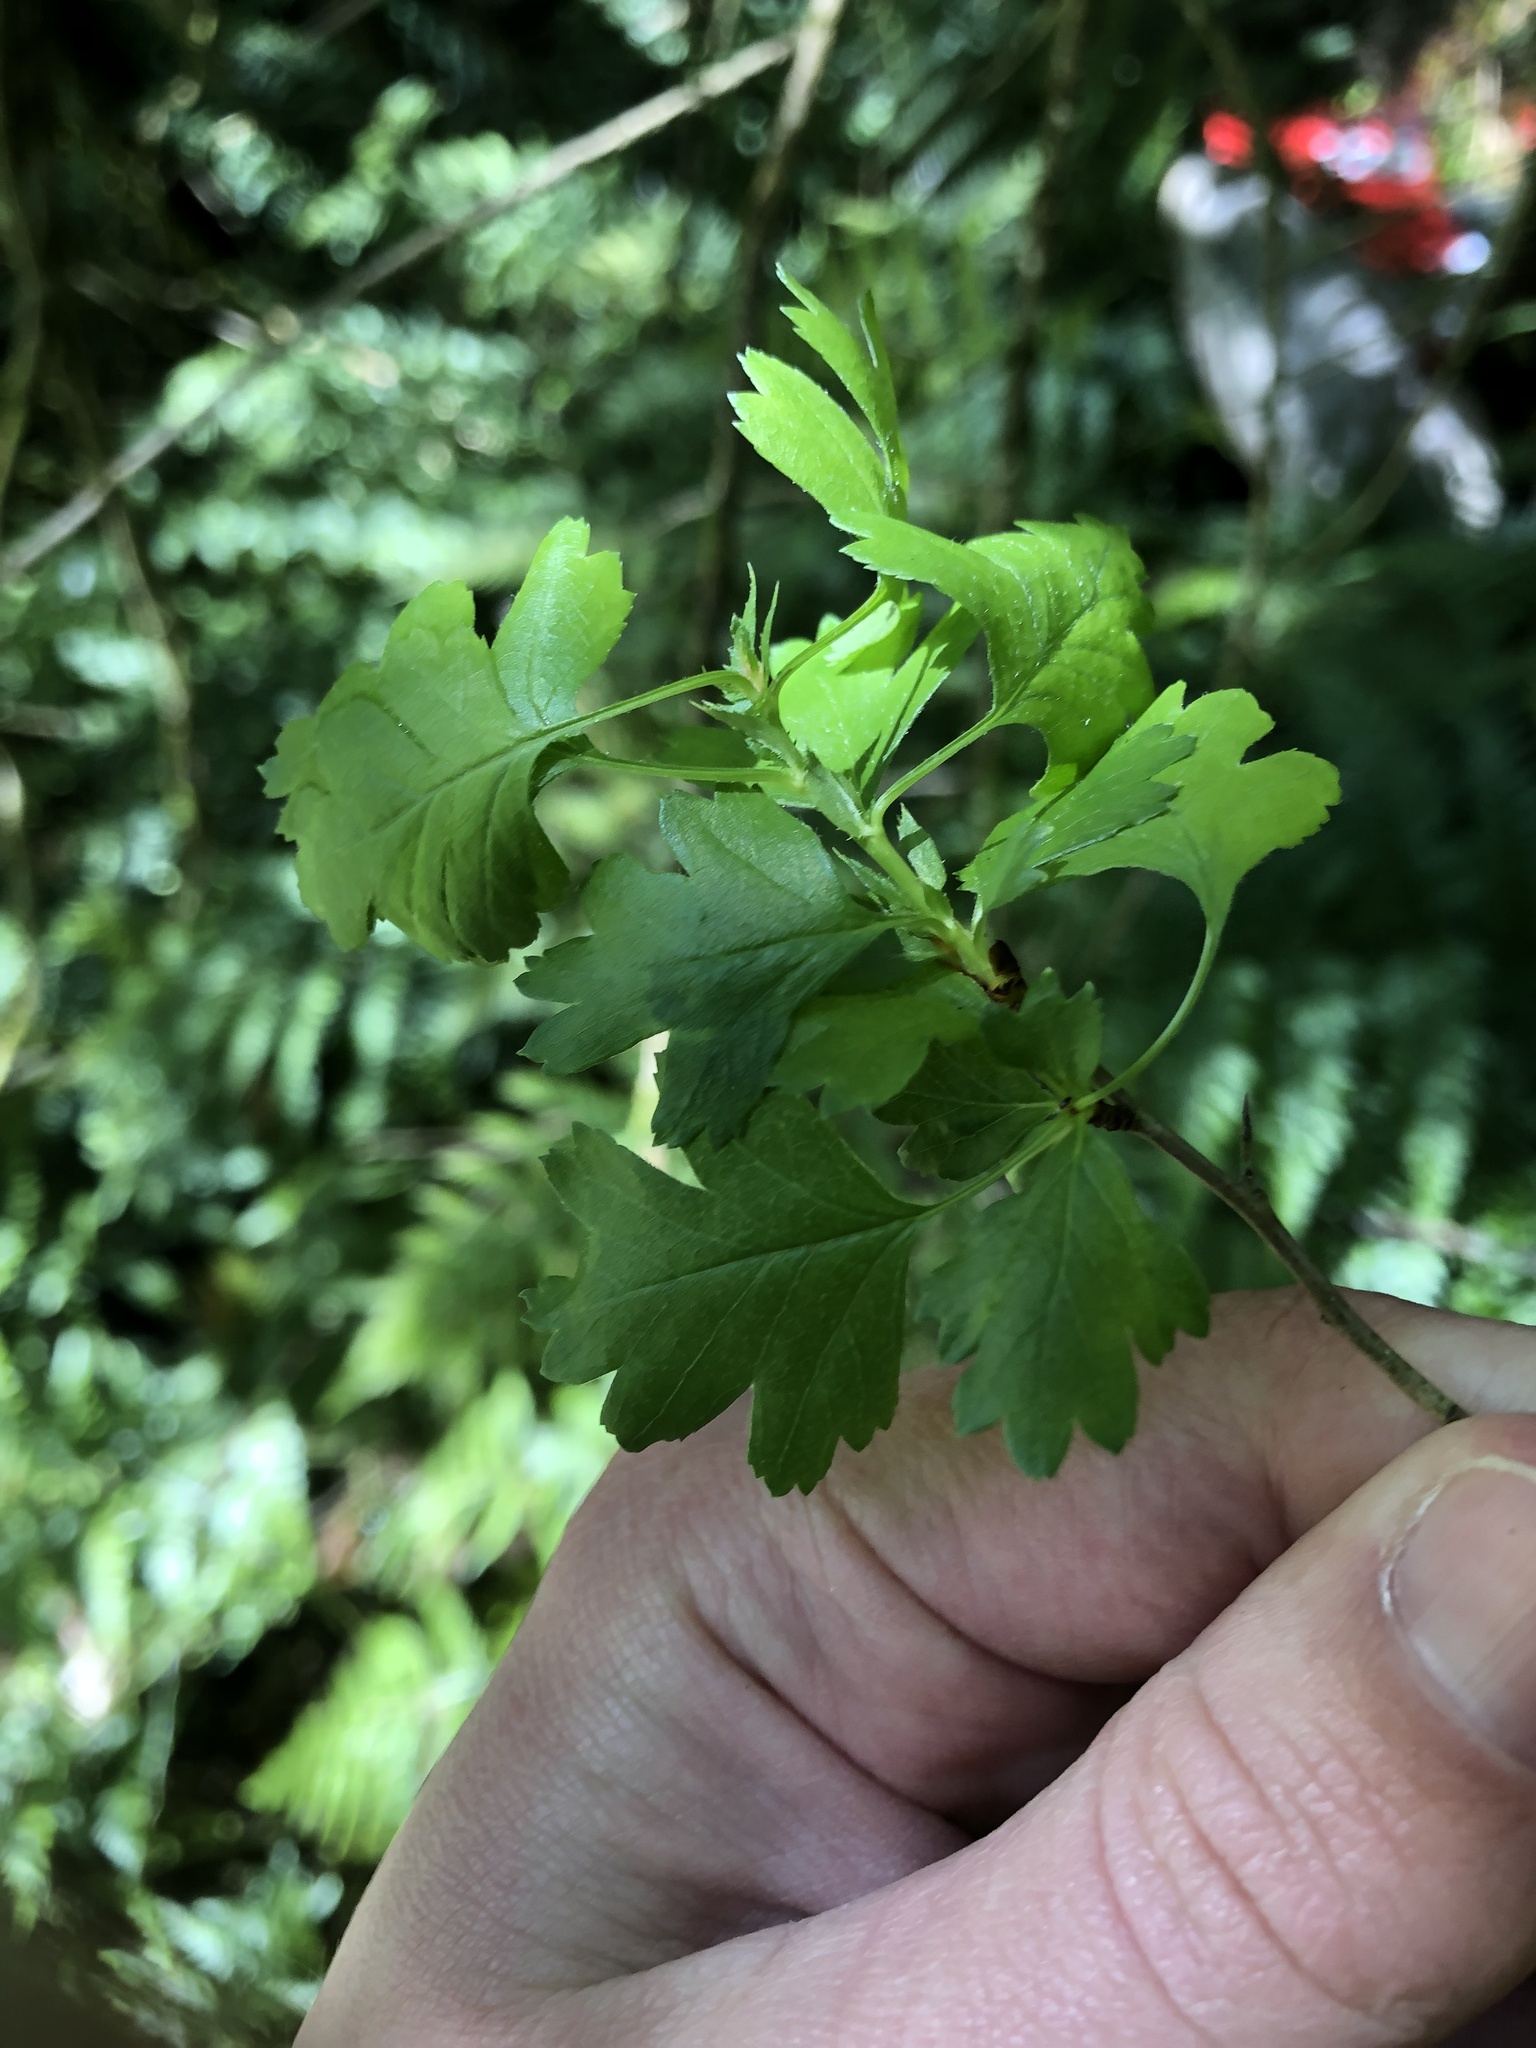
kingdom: Plantae
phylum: Tracheophyta
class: Magnoliopsida
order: Rosales
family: Rosaceae
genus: Crataegus
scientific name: Crataegus monogyna
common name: Hawthorn
